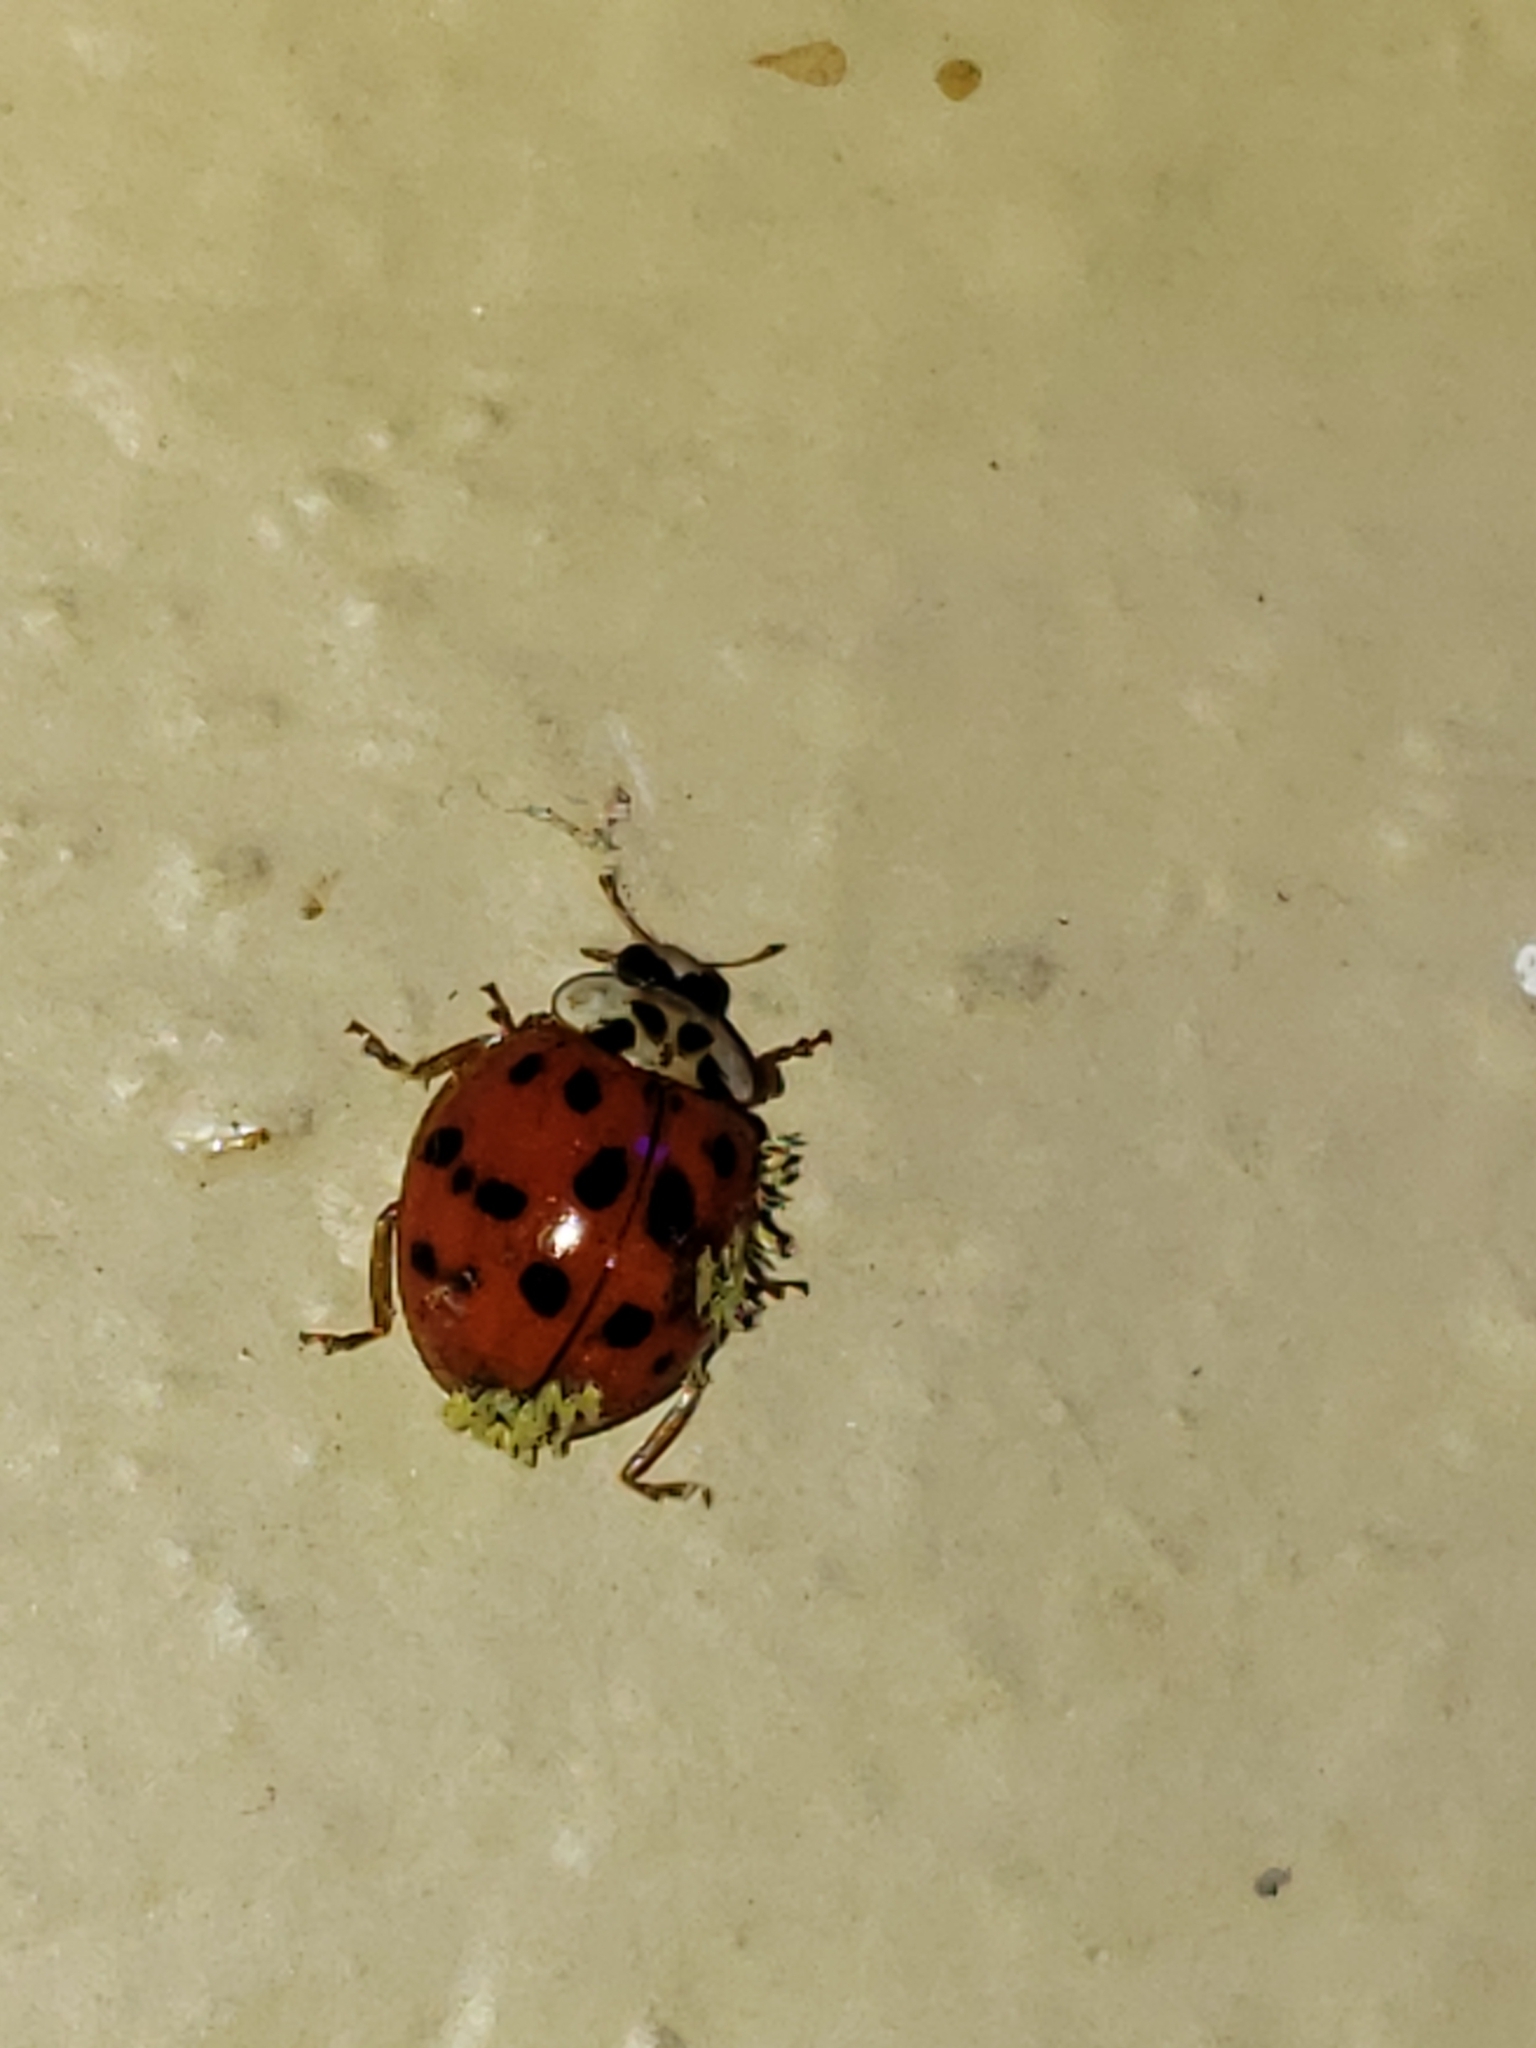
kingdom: Animalia
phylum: Arthropoda
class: Insecta
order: Coleoptera
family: Coccinellidae
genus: Harmonia
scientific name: Harmonia axyridis
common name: Harlequin ladybird
